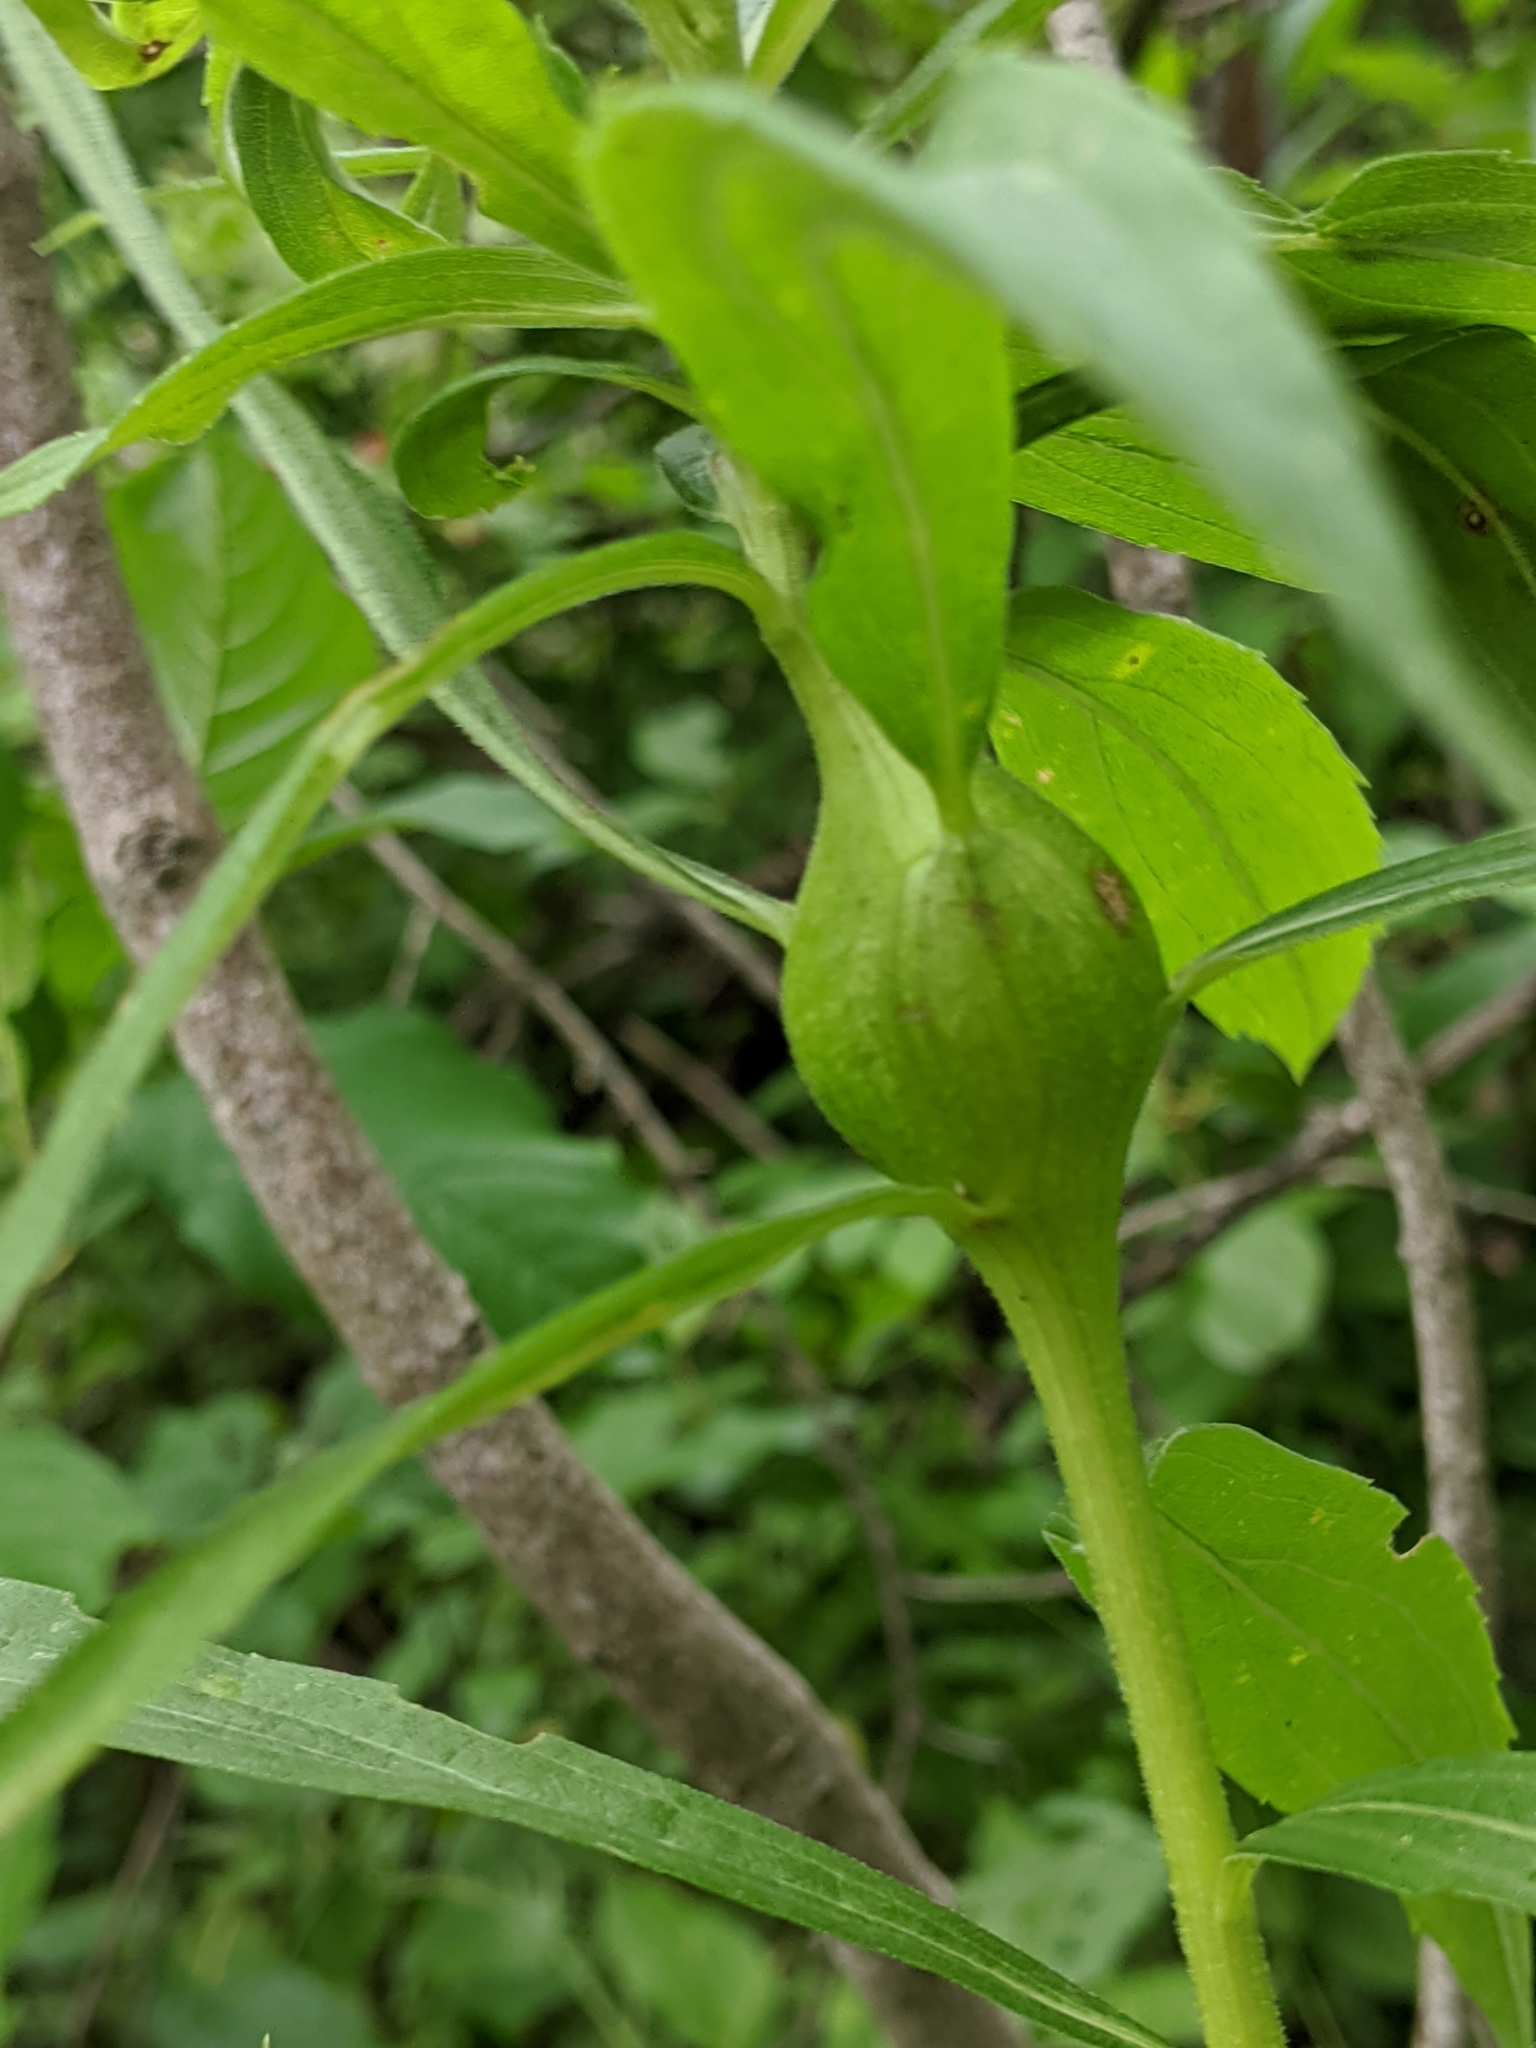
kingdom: Animalia
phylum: Arthropoda
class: Insecta
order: Diptera
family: Tephritidae
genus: Eurosta
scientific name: Eurosta solidaginis
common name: Goldenrod gall fly
